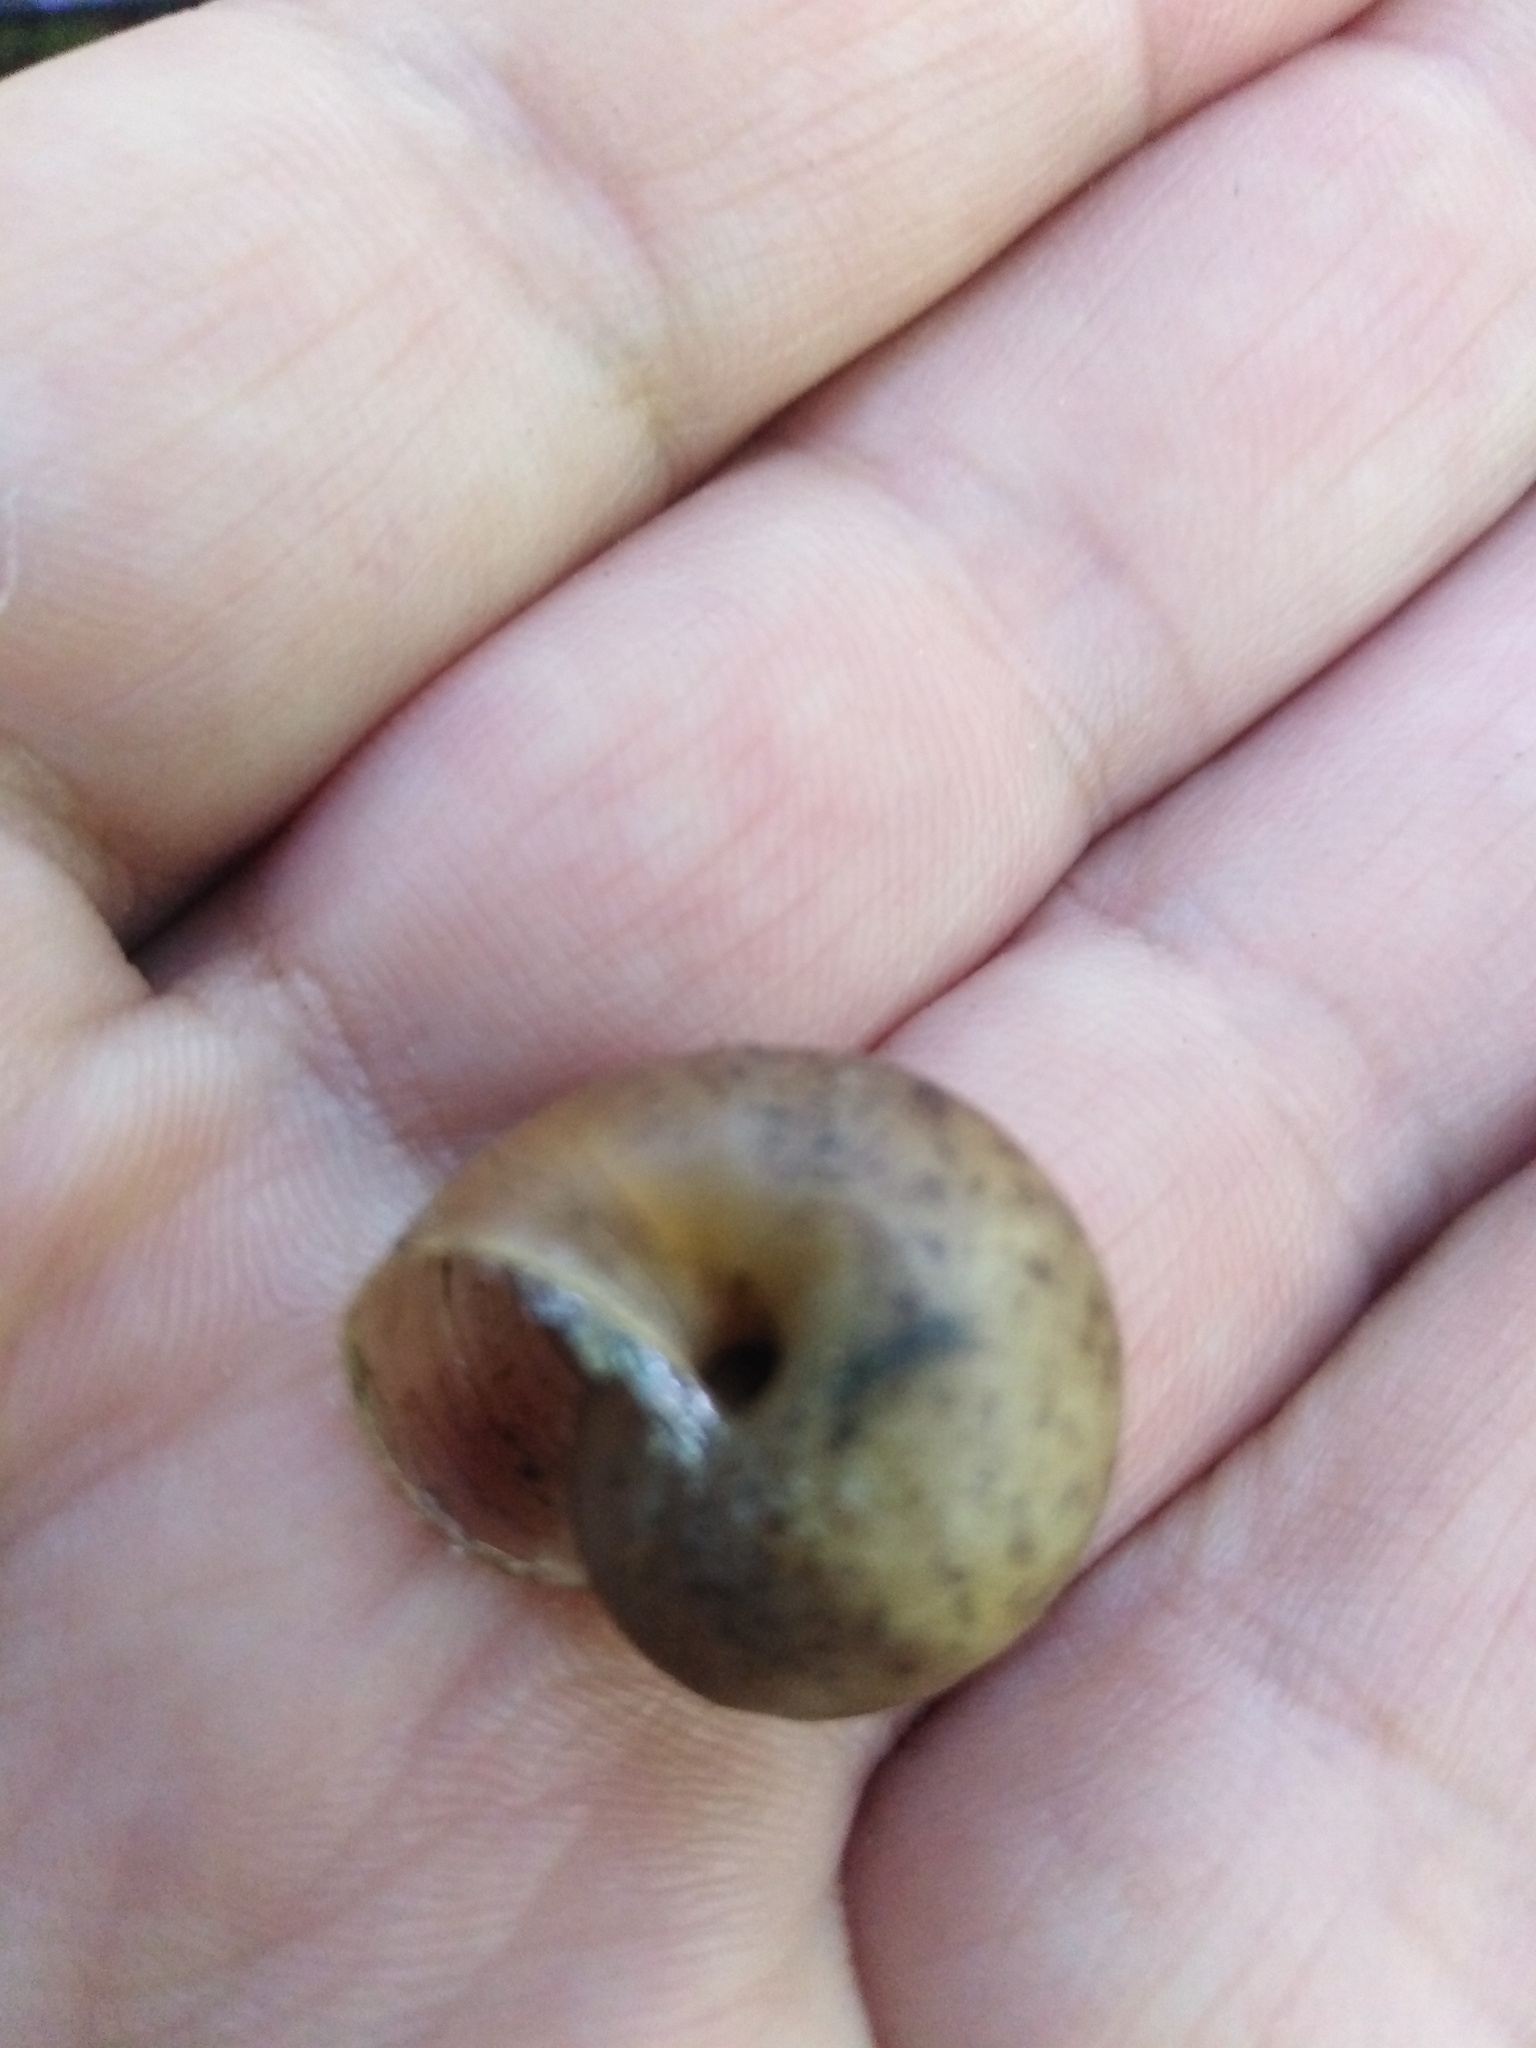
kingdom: Animalia
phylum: Mollusca
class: Gastropoda
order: Stylommatophora
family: Camaenidae
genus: Fruticicola
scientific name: Fruticicola fruticum
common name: Bush snail
